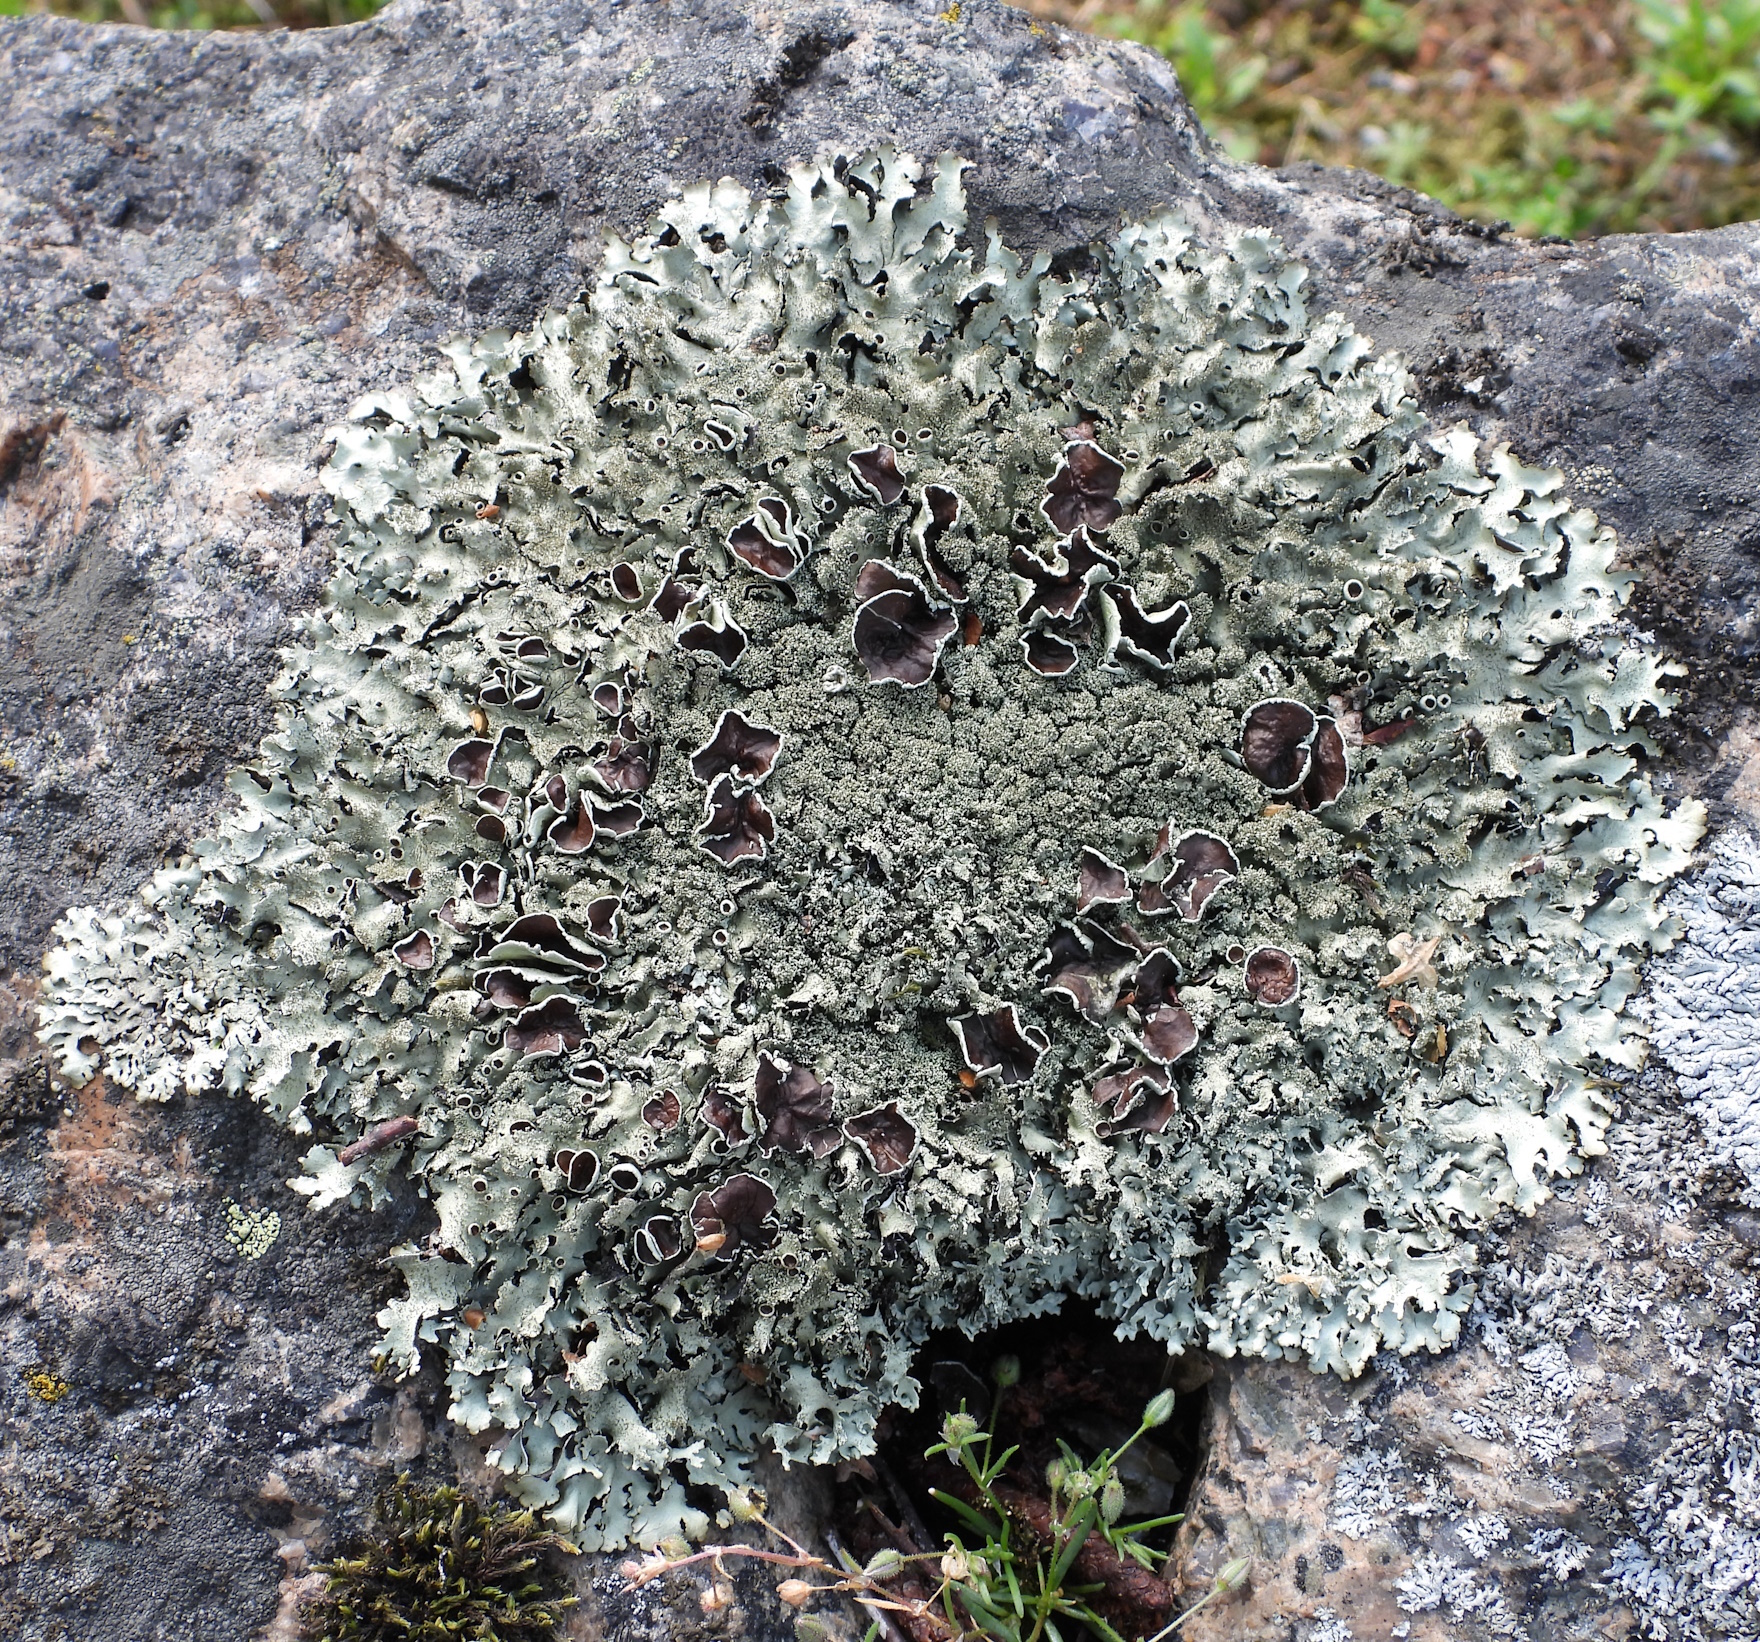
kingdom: Fungi
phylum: Ascomycota
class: Lecanoromycetes
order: Lecanorales
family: Parmeliaceae
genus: Xanthoparmelia
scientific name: Xanthoparmelia conspersa
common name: Peppered rock shield
